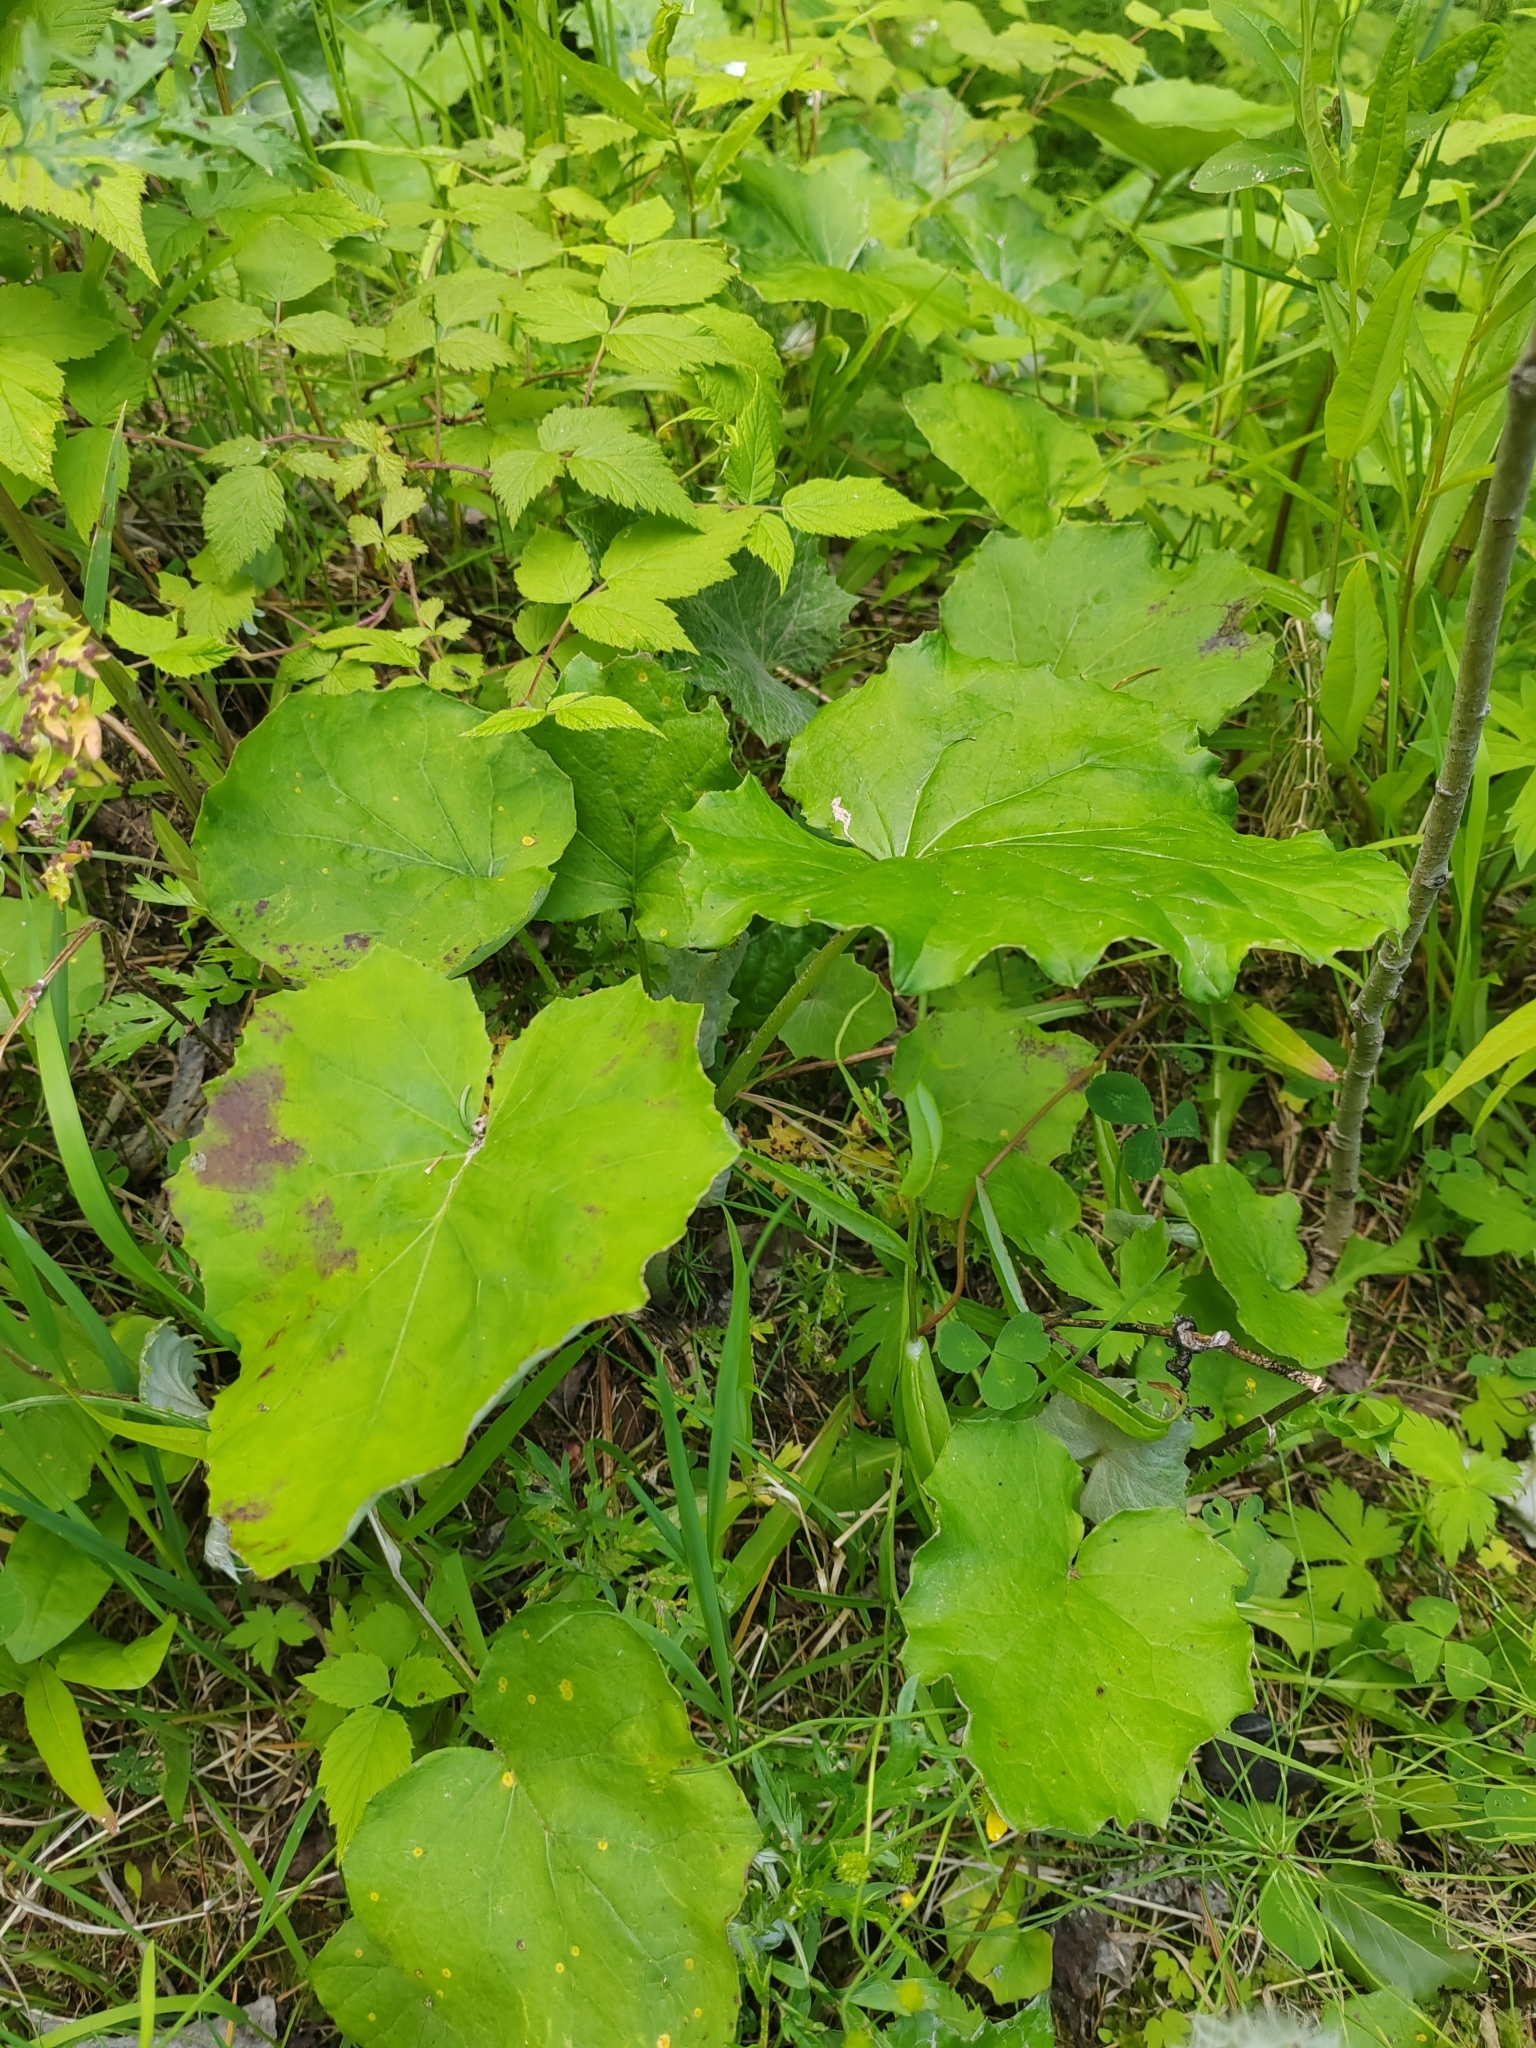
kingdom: Plantae
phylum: Tracheophyta
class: Magnoliopsida
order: Asterales
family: Asteraceae
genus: Tussilago
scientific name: Tussilago farfara
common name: Coltsfoot
